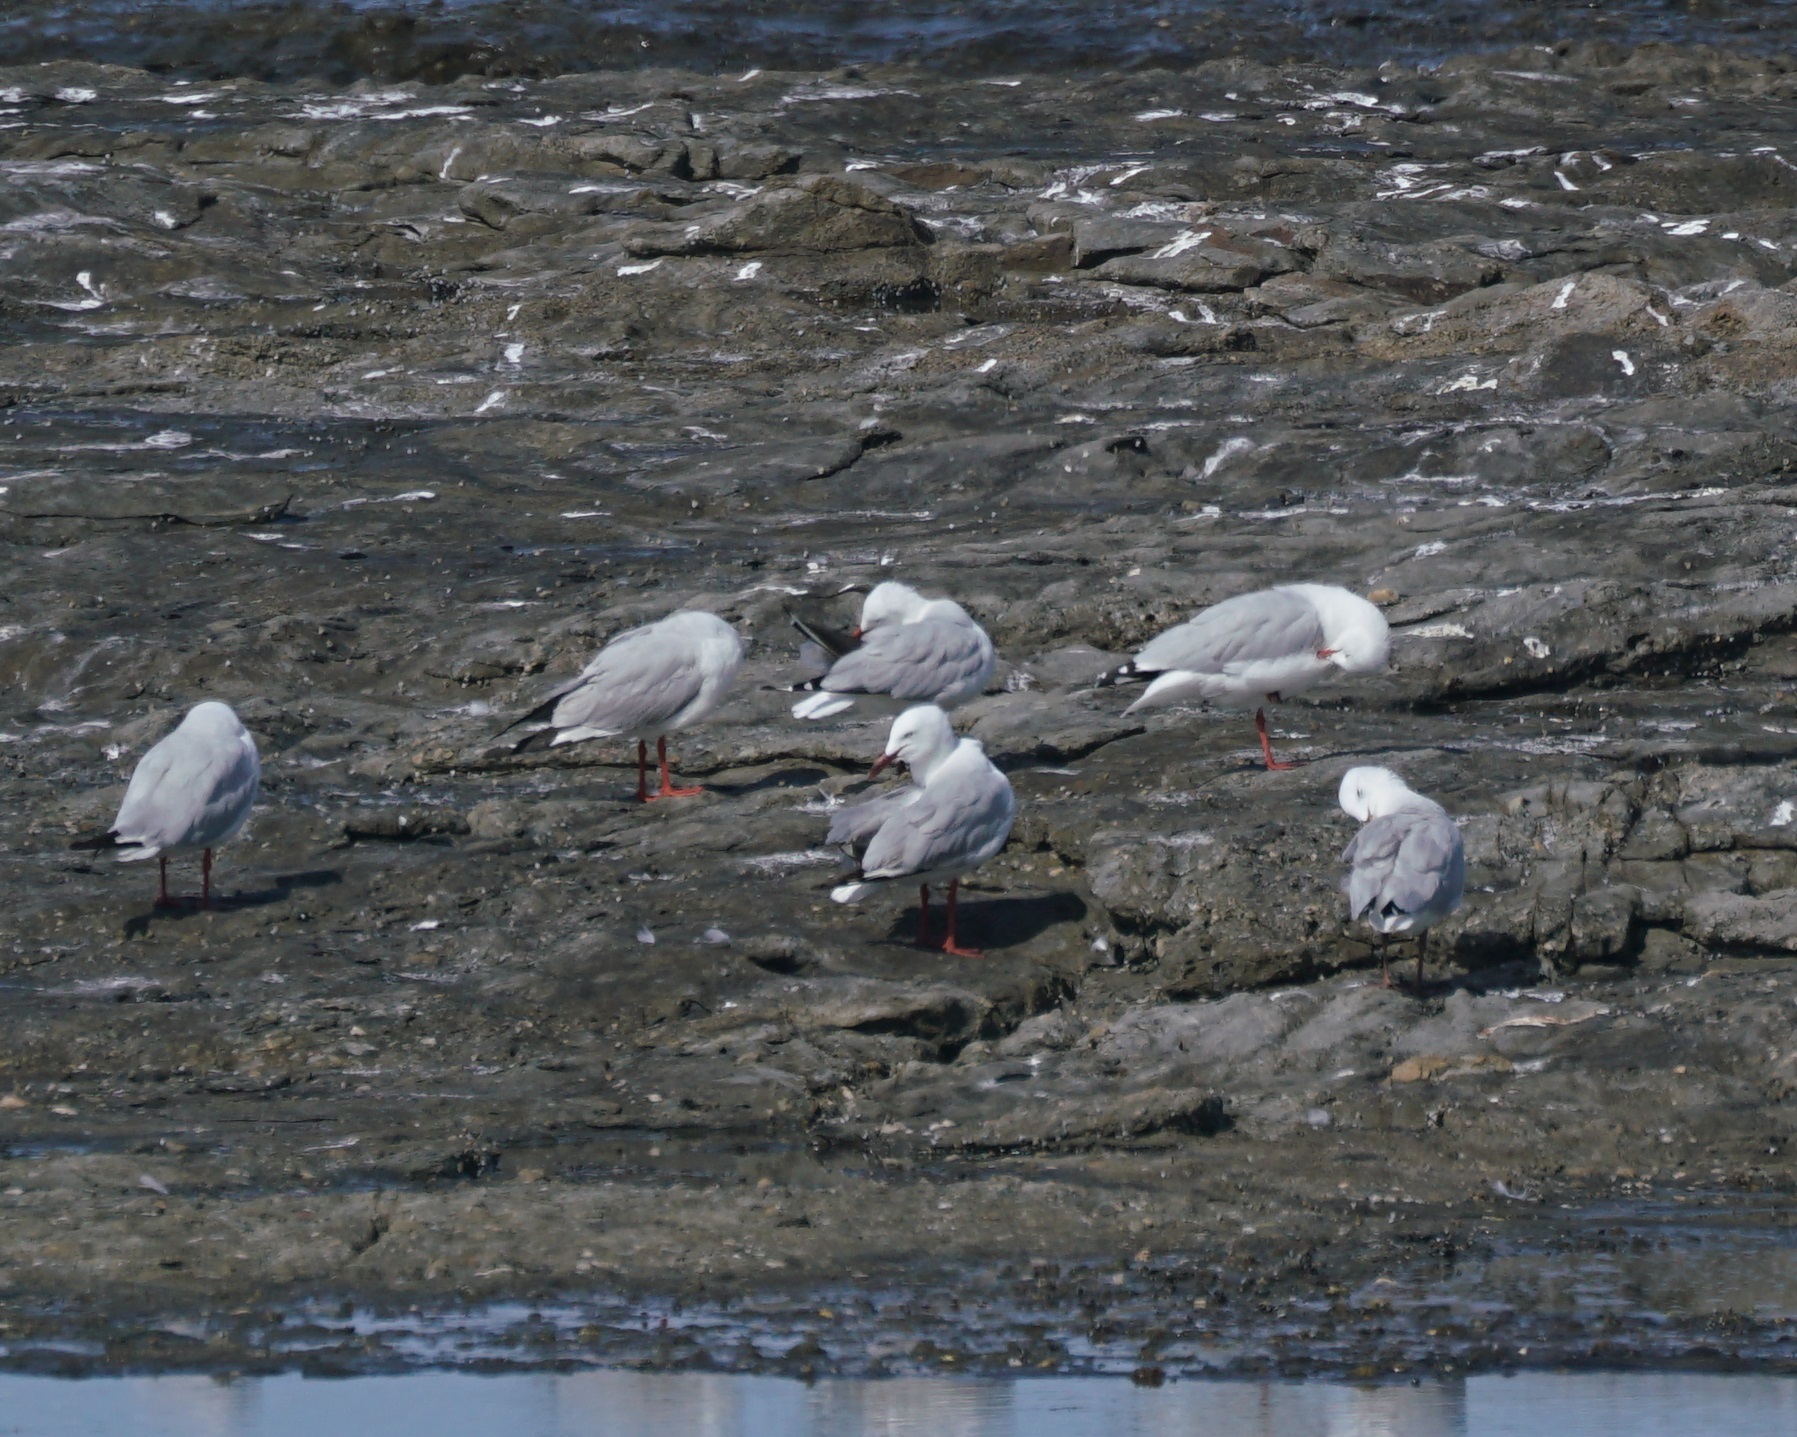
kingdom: Animalia
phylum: Chordata
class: Aves
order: Charadriiformes
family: Laridae
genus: Chroicocephalus
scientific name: Chroicocephalus novaehollandiae
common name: Silver gull
